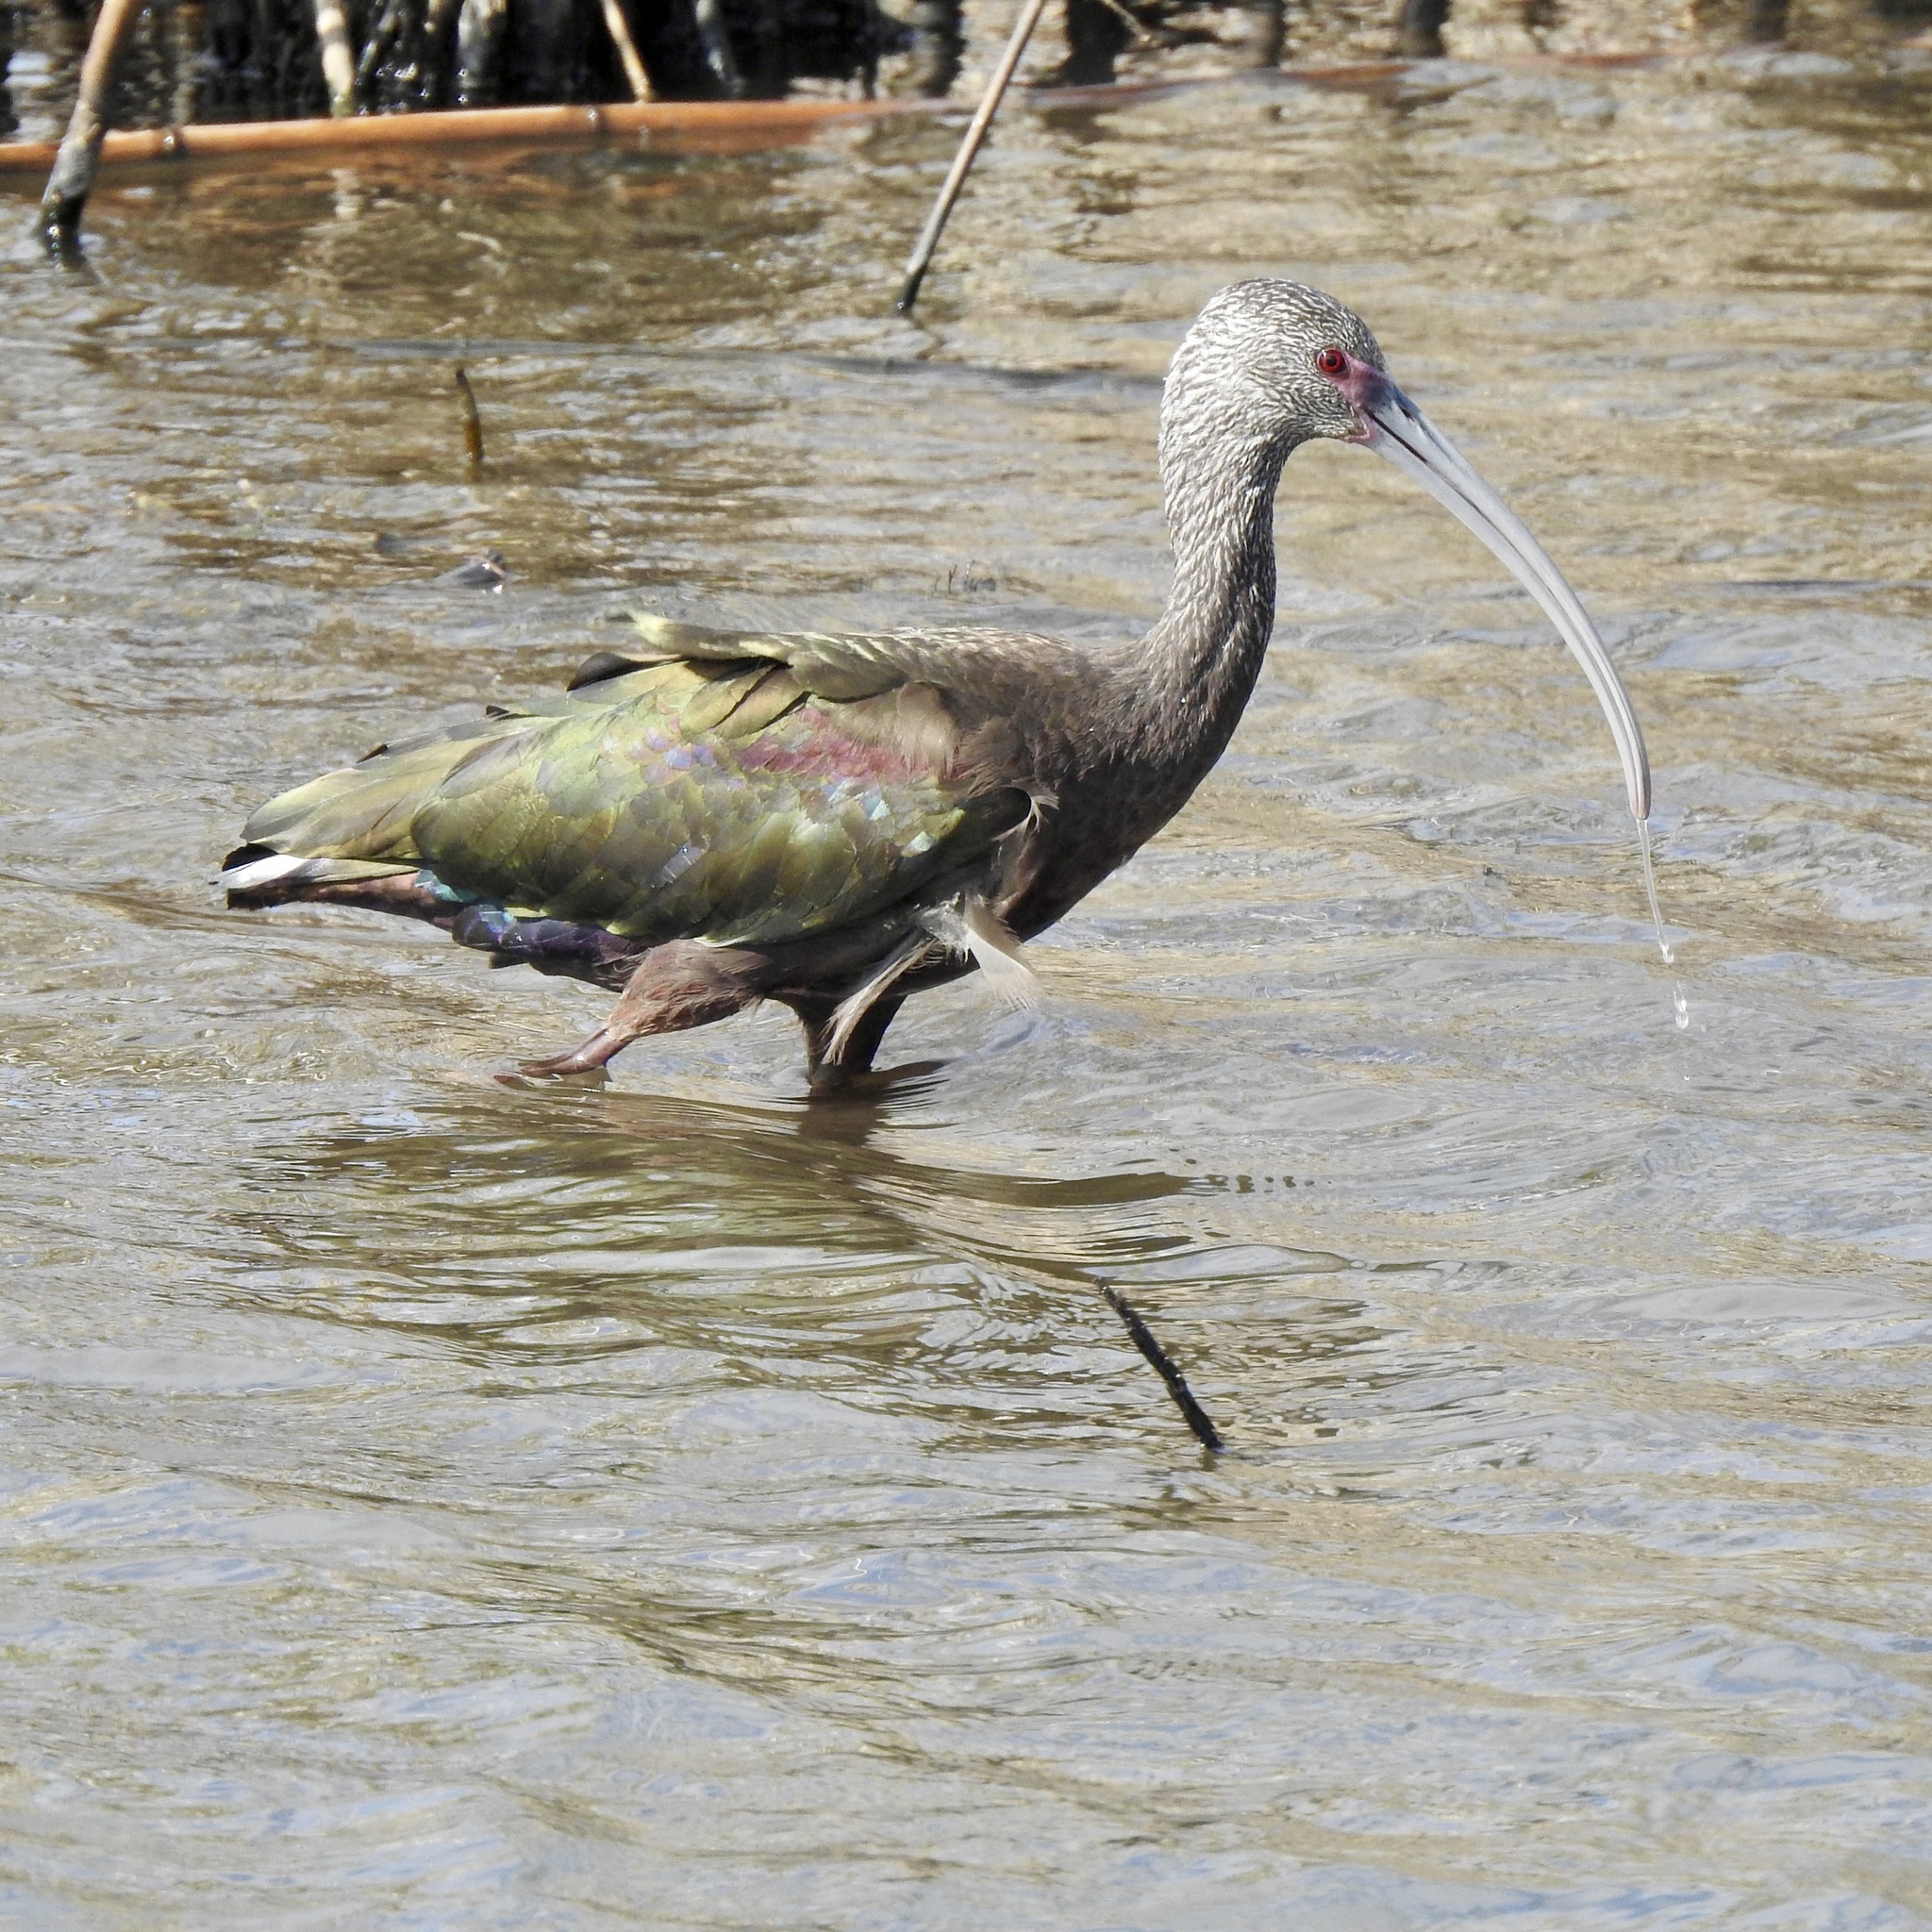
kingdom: Animalia
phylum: Chordata
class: Aves
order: Pelecaniformes
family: Threskiornithidae
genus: Plegadis
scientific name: Plegadis chihi
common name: White-faced ibis
